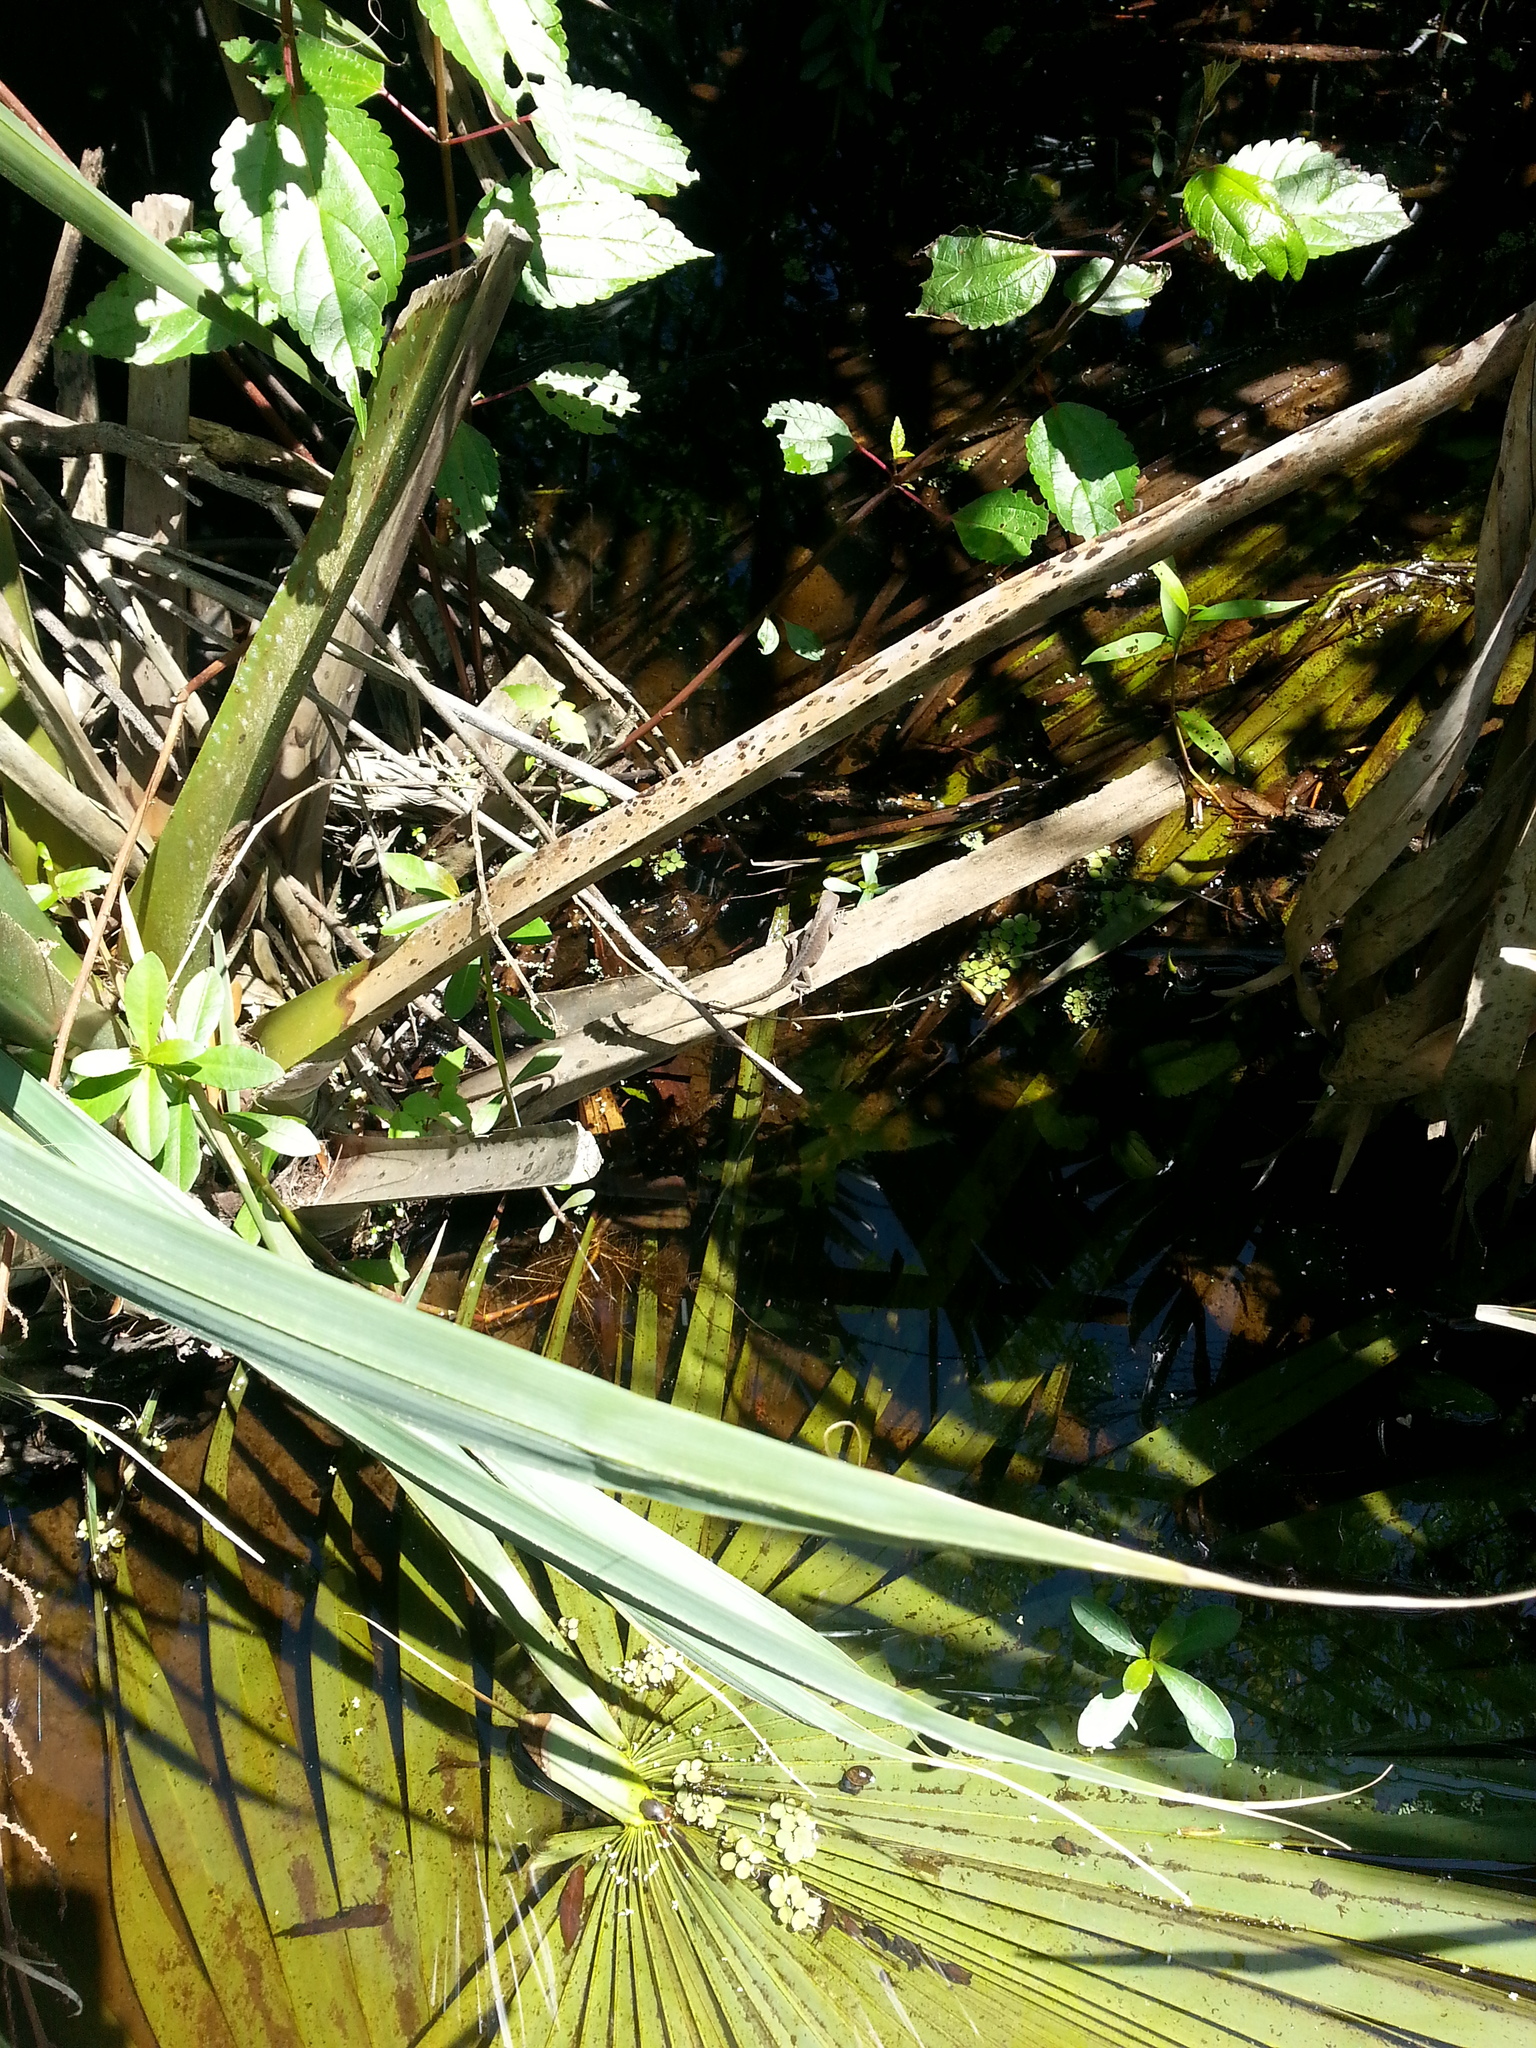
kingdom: Animalia
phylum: Chordata
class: Squamata
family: Dactyloidae
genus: Anolis
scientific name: Anolis carolinensis
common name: Green anole
